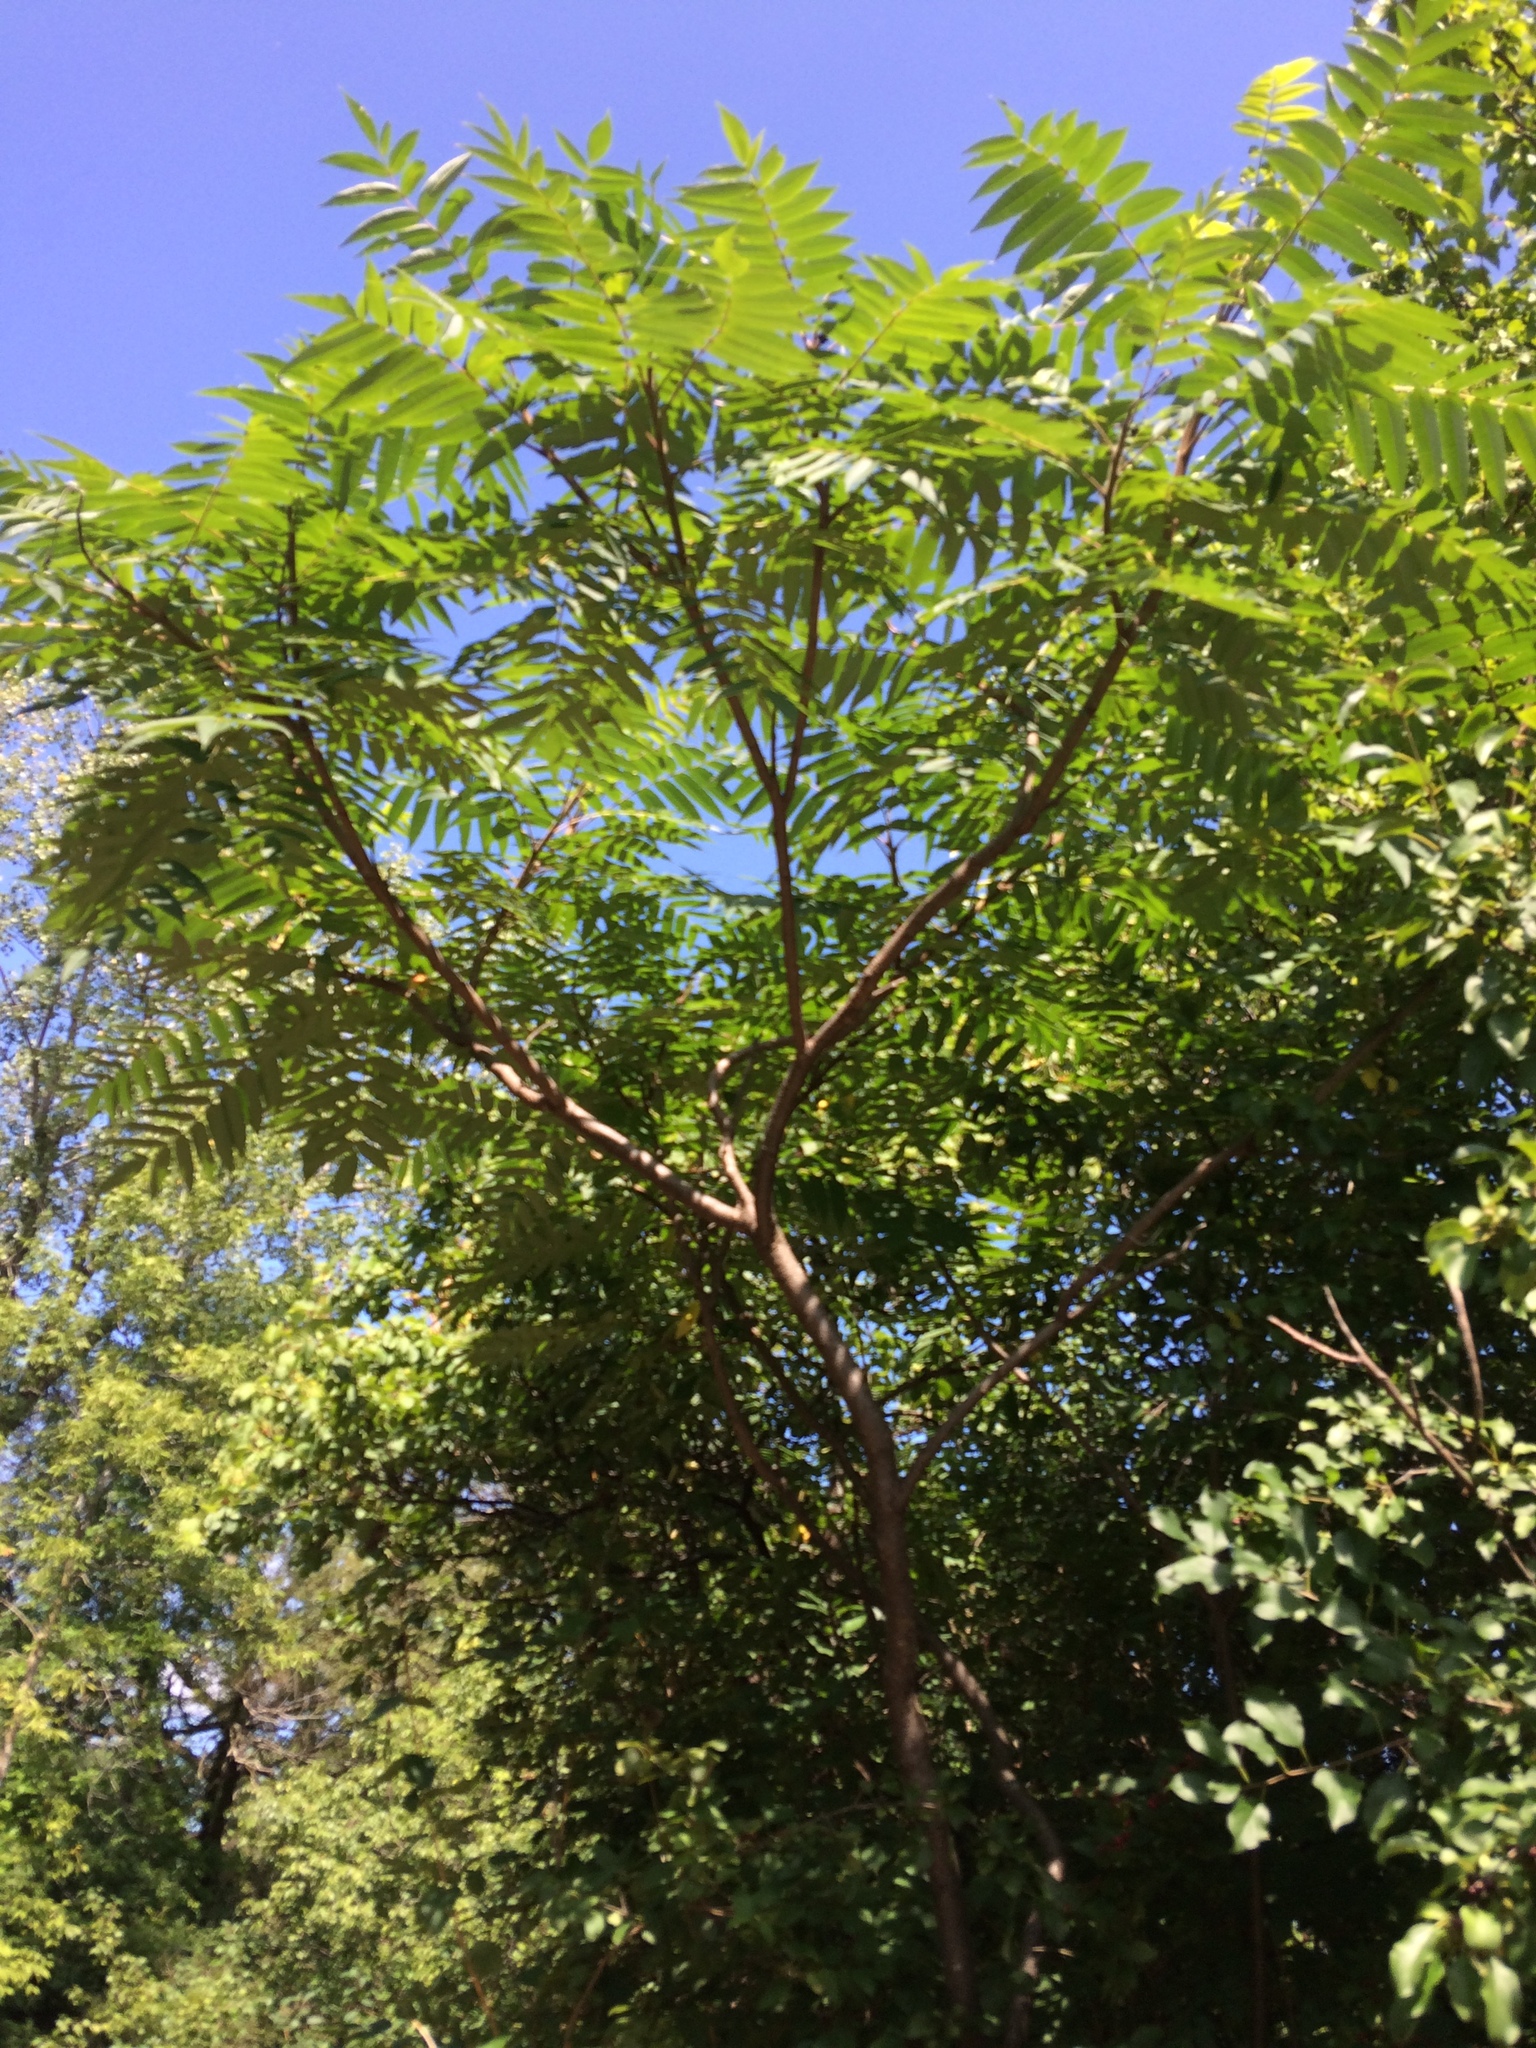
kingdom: Plantae
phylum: Tracheophyta
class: Magnoliopsida
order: Sapindales
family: Anacardiaceae
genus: Rhus
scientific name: Rhus typhina
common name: Staghorn sumac
